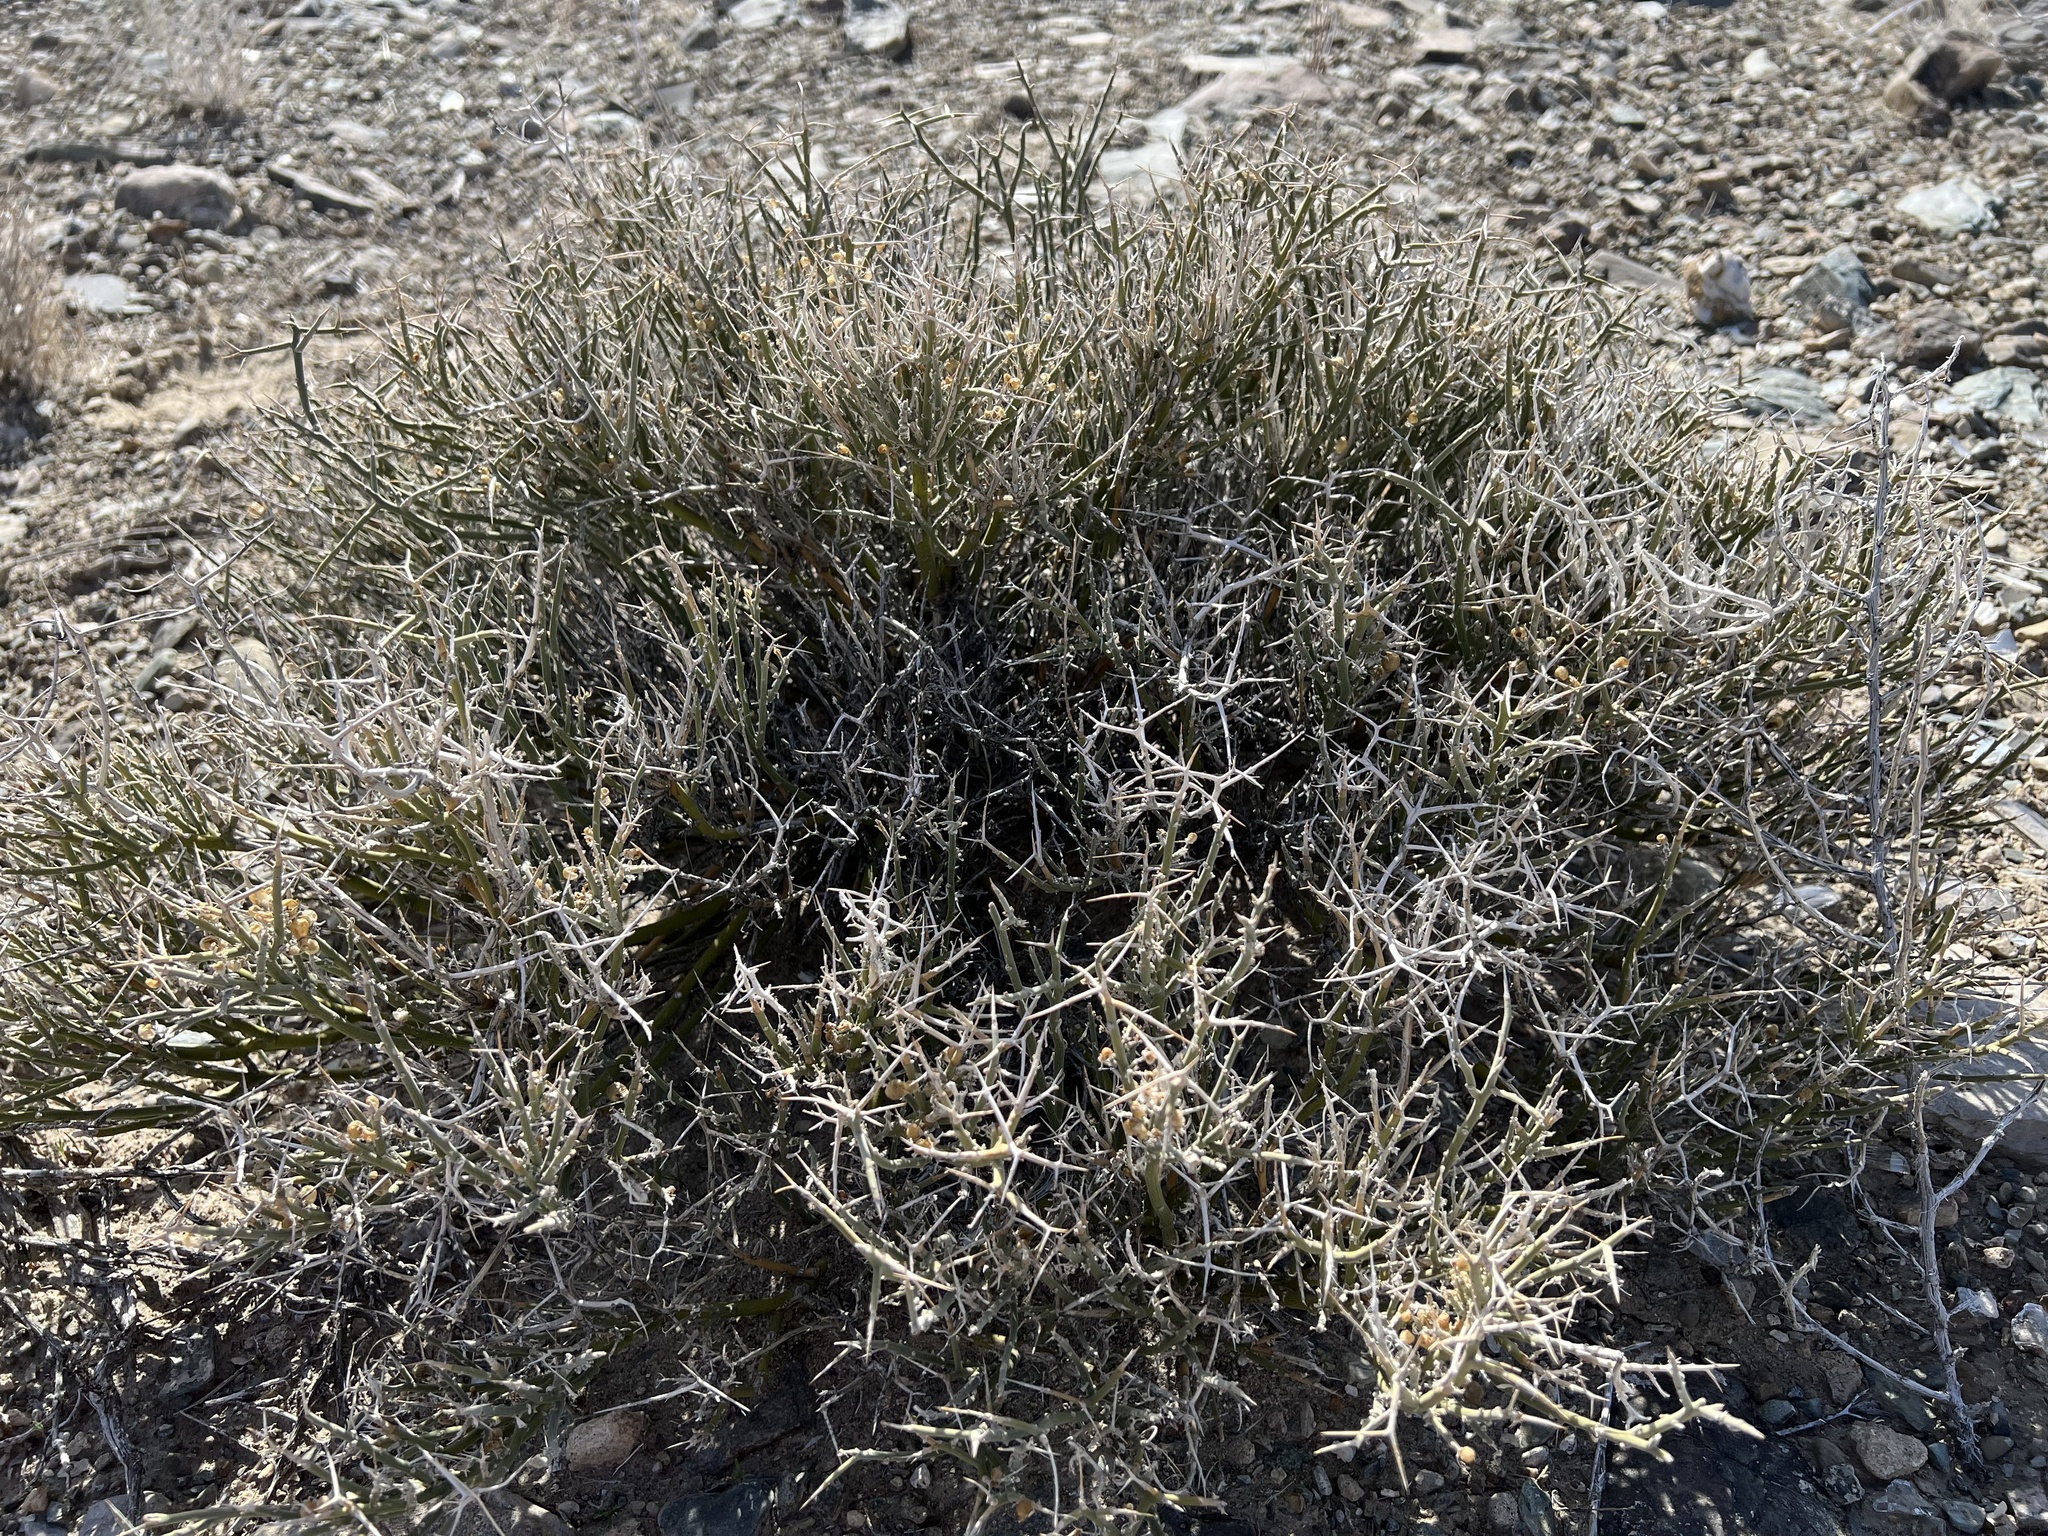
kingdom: Plantae
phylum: Tracheophyta
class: Magnoliopsida
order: Lamiales
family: Oleaceae
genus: Menodora
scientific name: Menodora spinescens
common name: Spiny menodora
